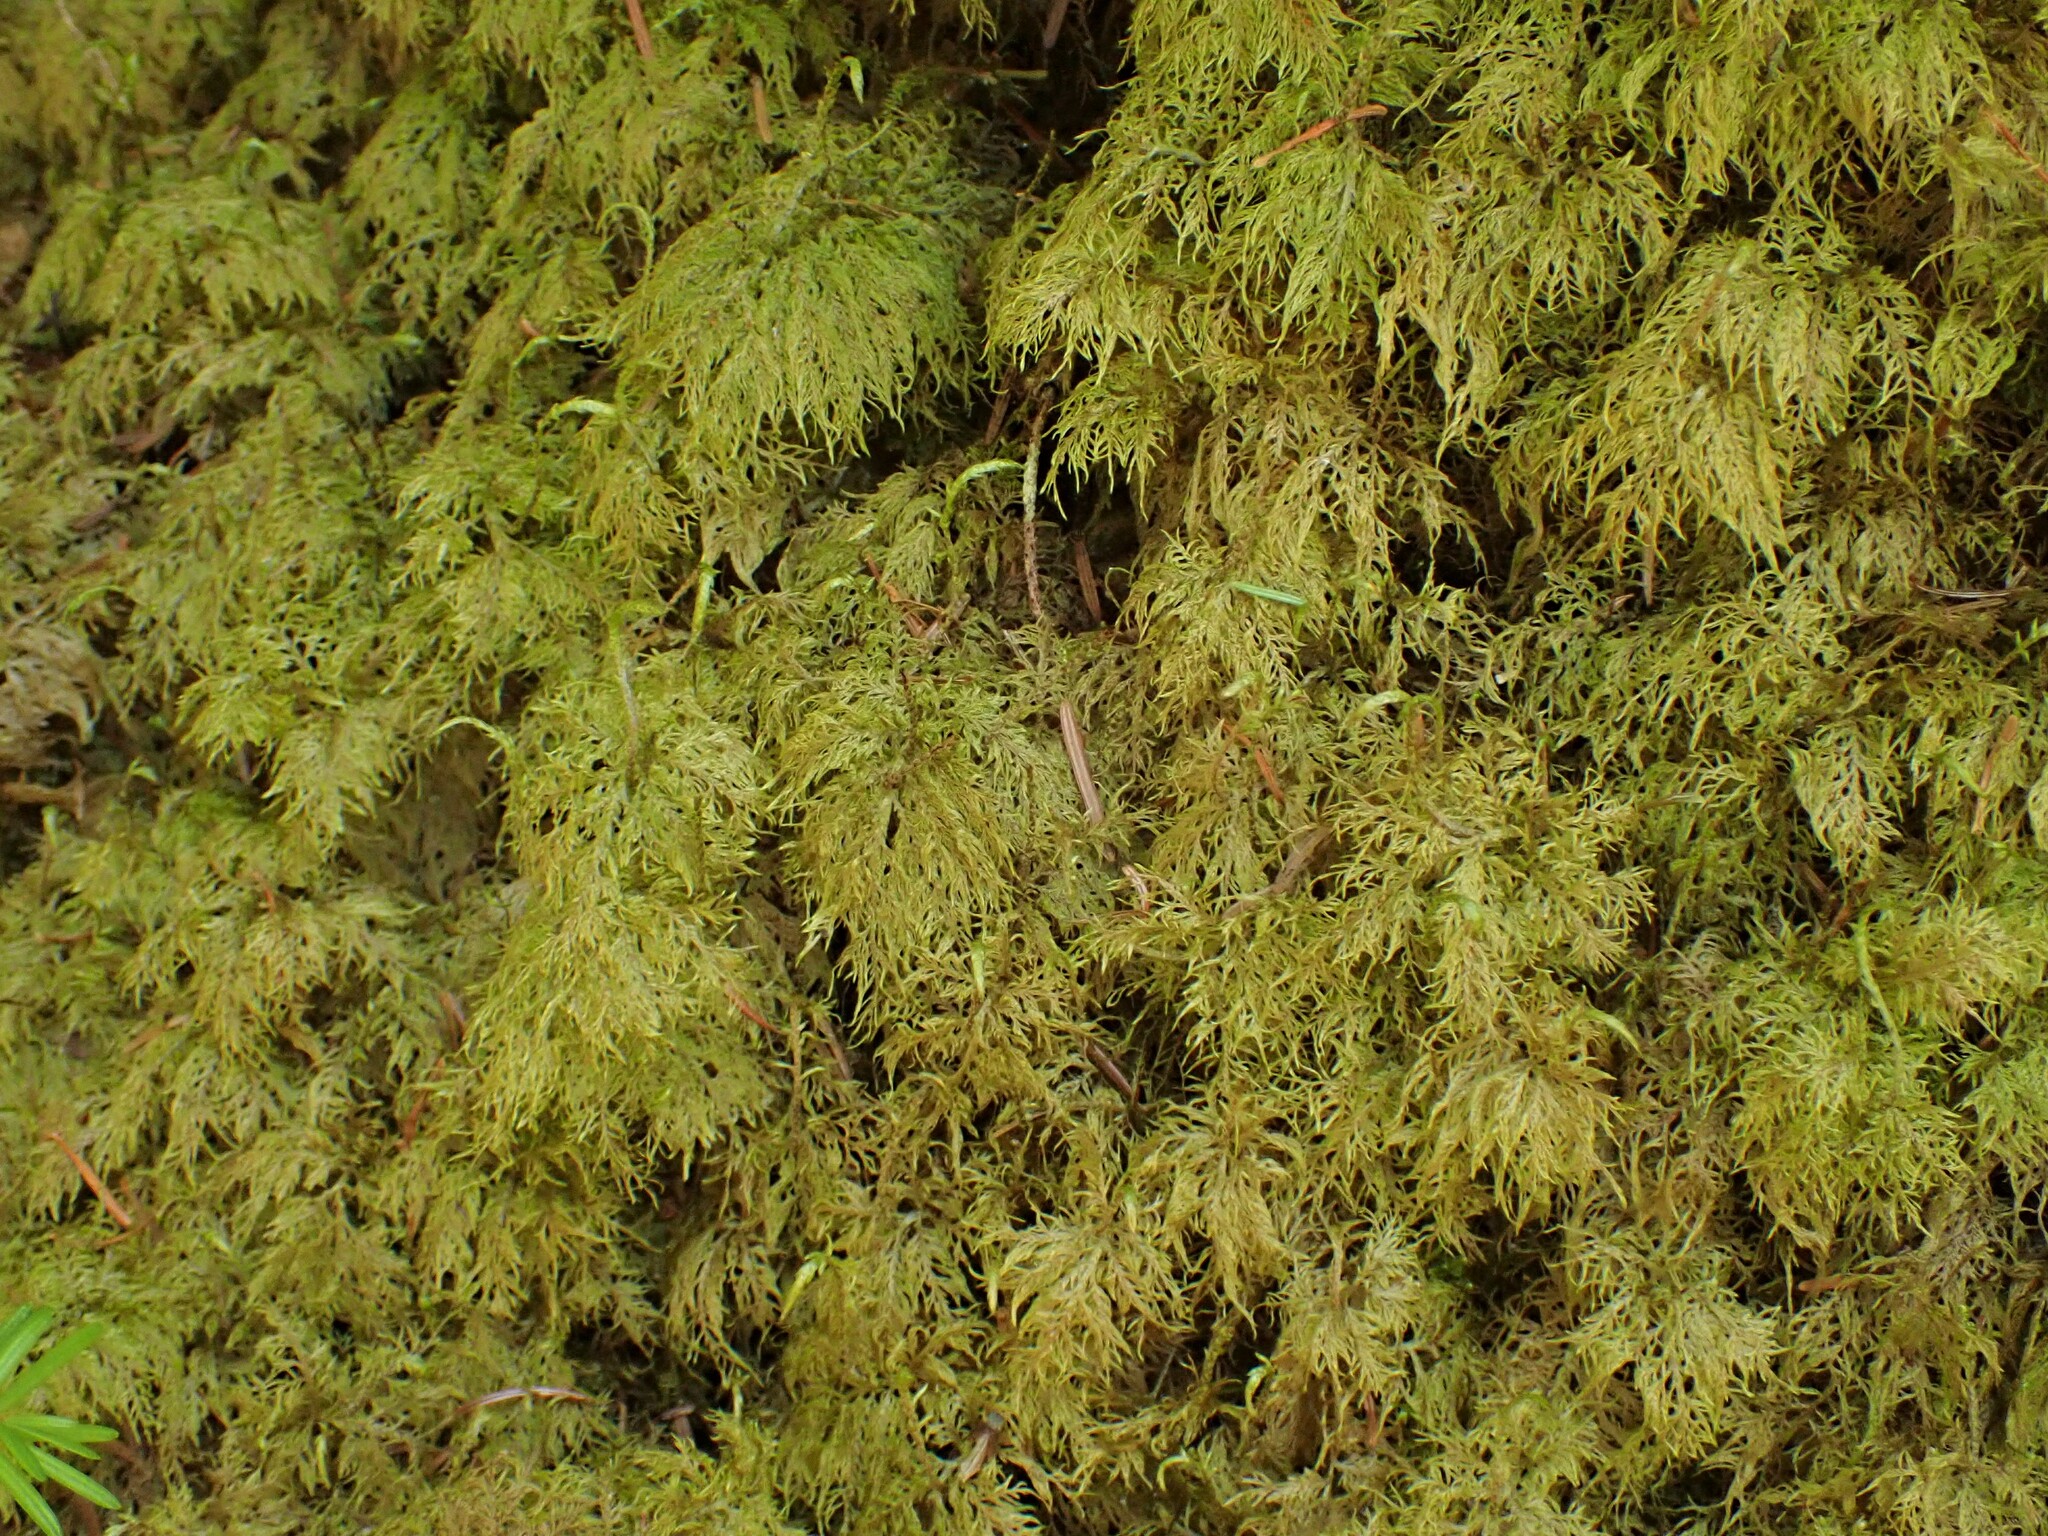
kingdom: Plantae
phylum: Bryophyta
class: Bryopsida
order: Hypnales
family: Hylocomiaceae
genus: Hylocomium
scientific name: Hylocomium splendens
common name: Stairstep moss
